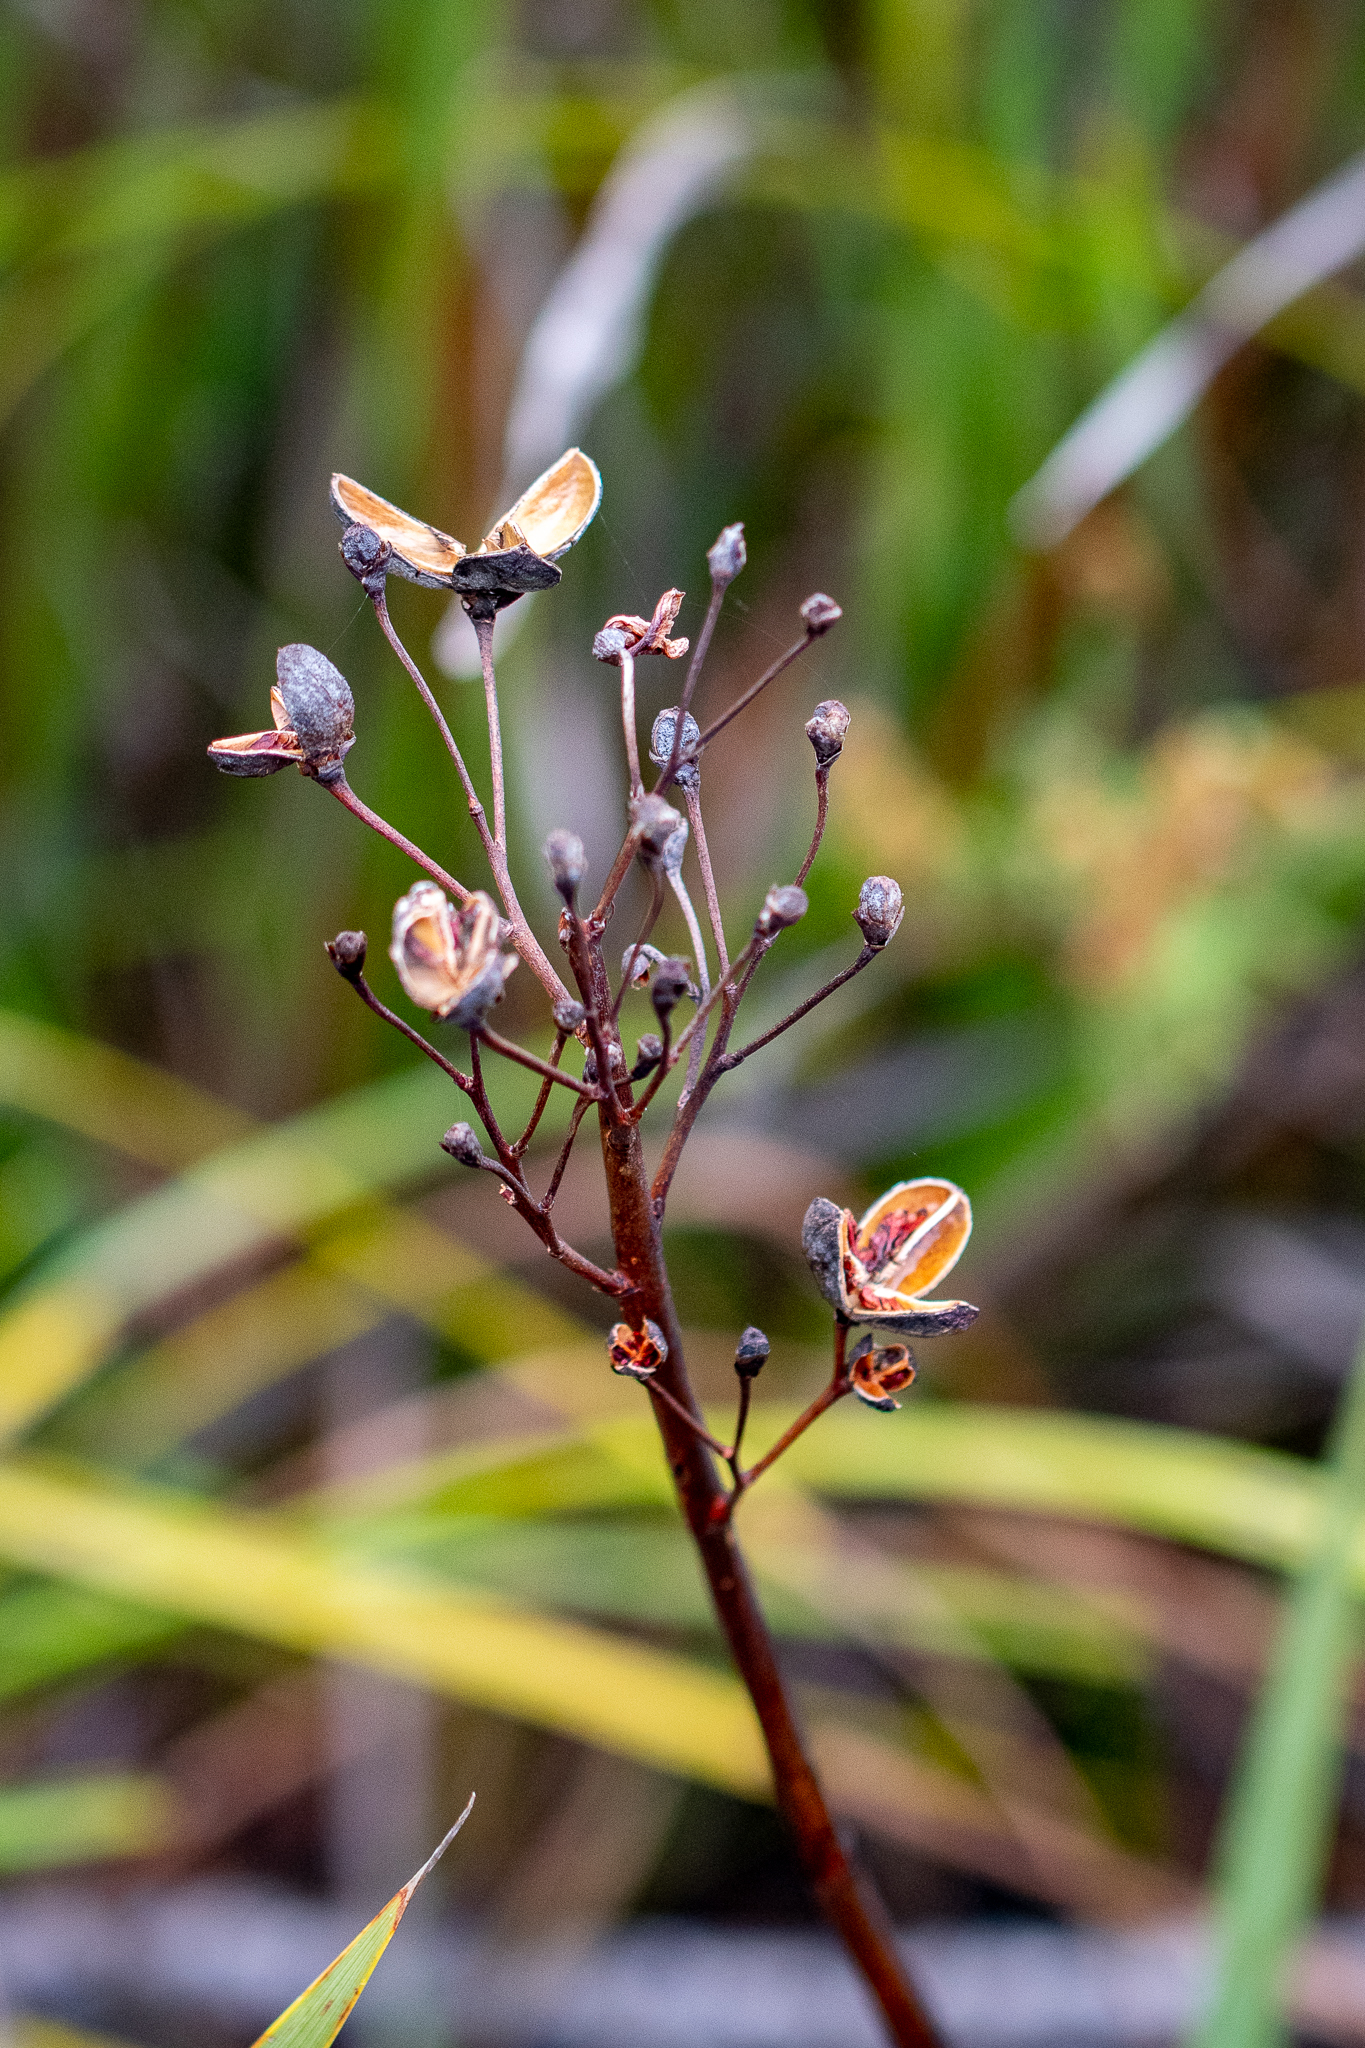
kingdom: Plantae
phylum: Tracheophyta
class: Liliopsida
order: Asparagales
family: Iridaceae
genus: Pillansia
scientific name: Pillansia templemannii
